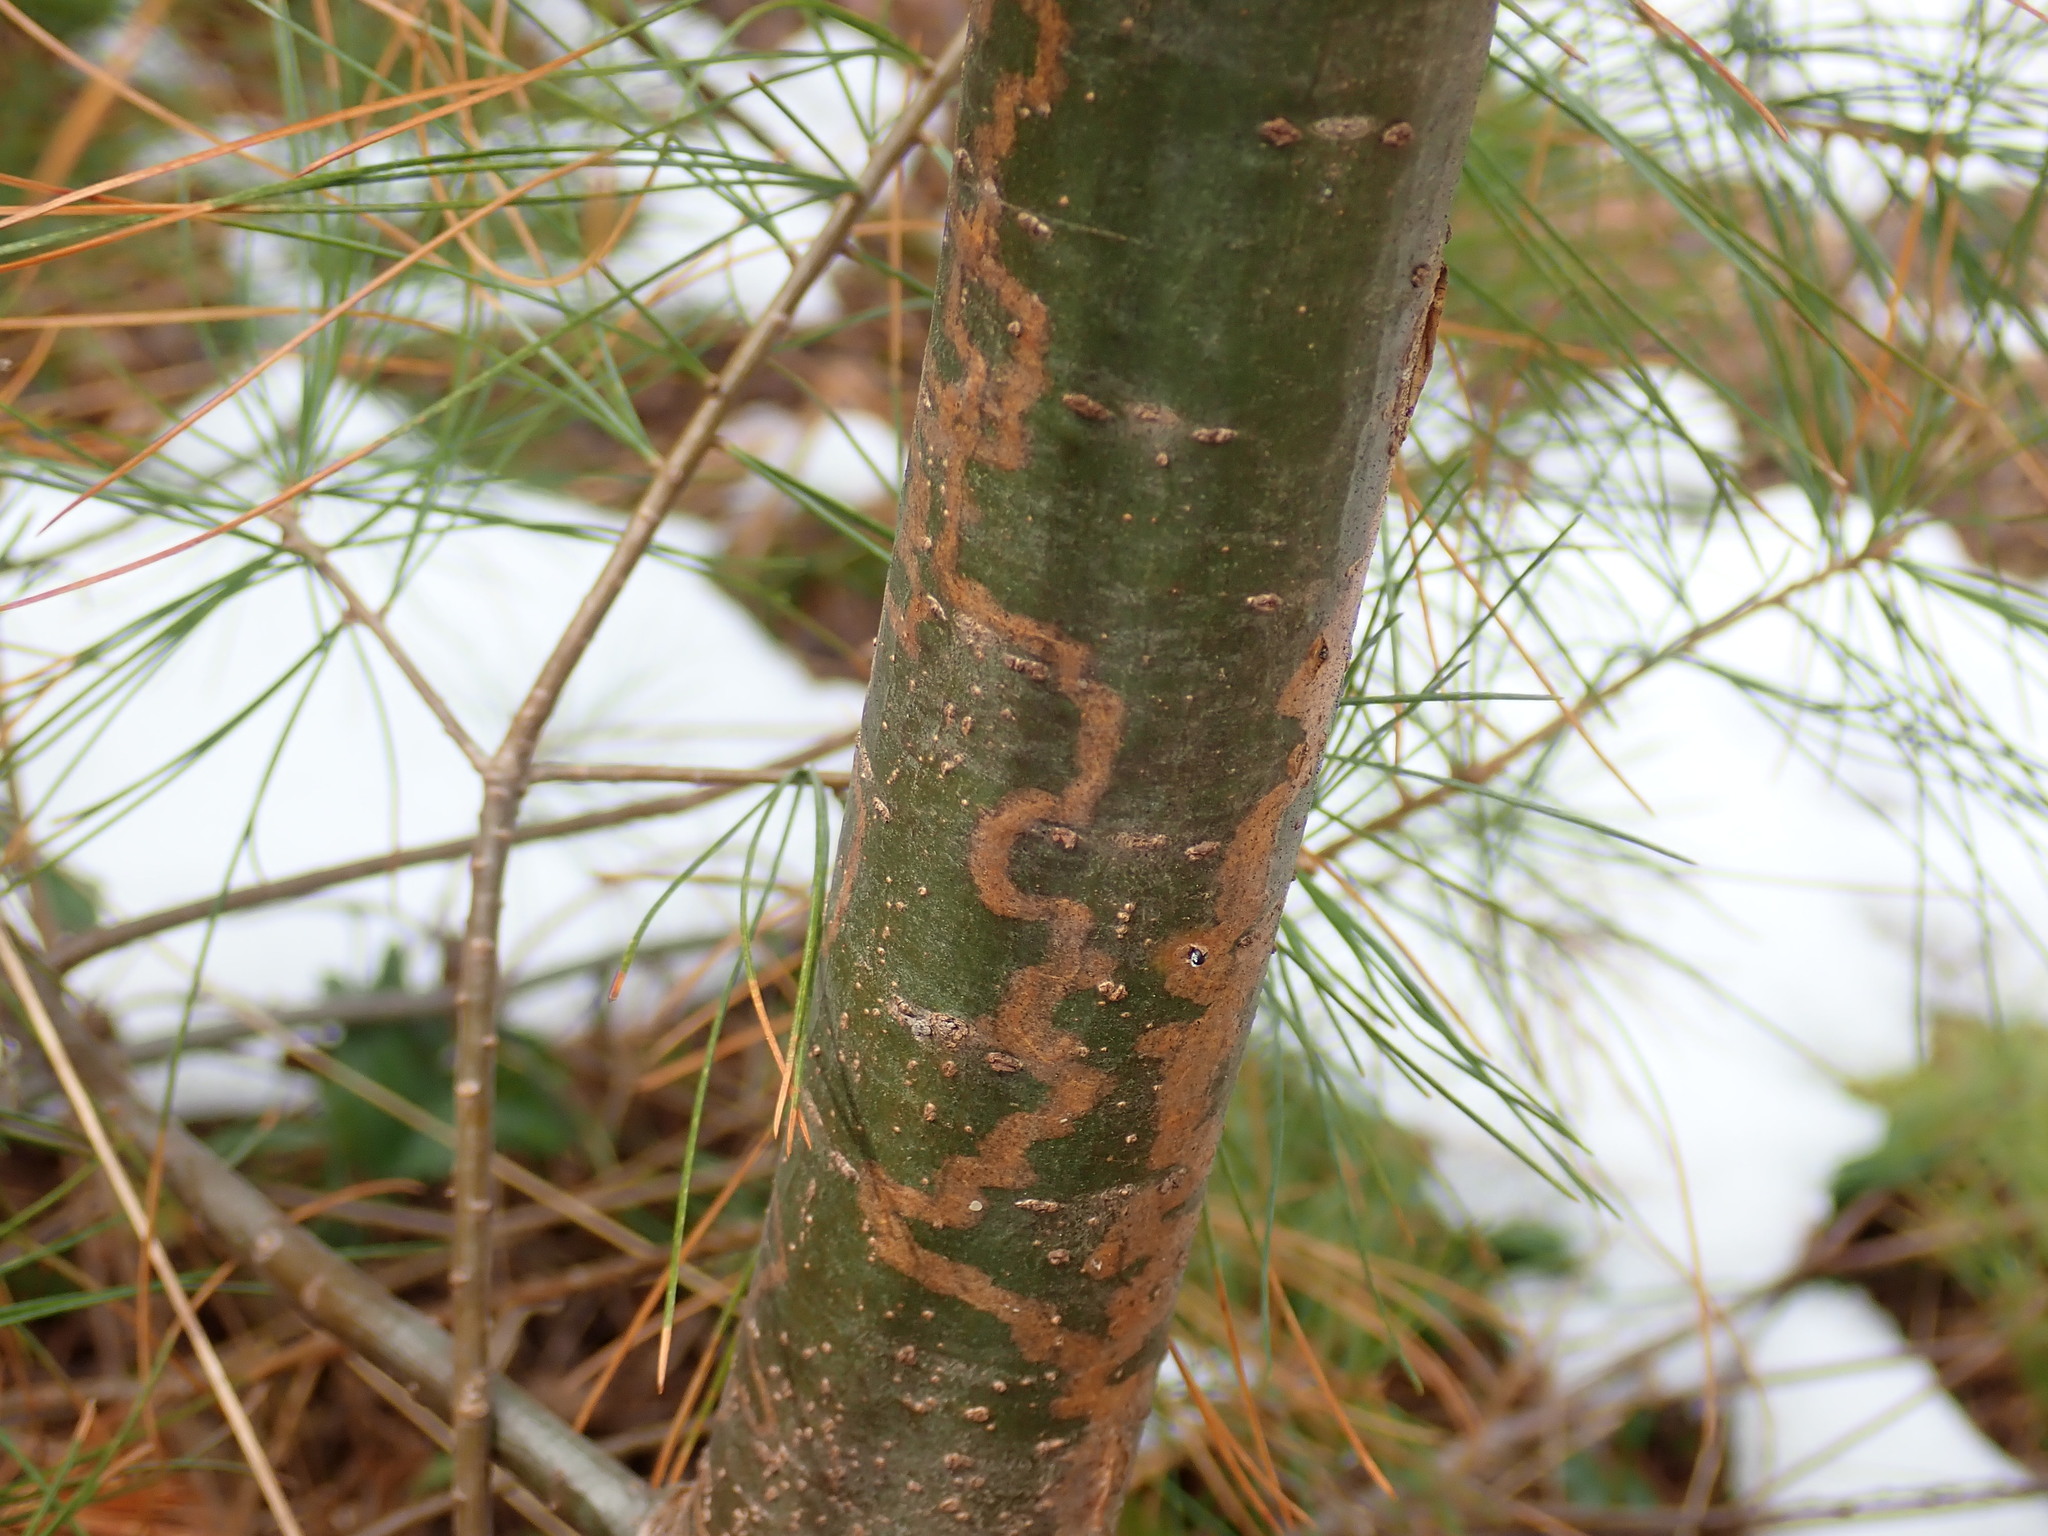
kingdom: Animalia
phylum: Arthropoda
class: Insecta
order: Lepidoptera
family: Gracillariidae
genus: Marmara
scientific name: Marmara fasciella
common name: White pine barkminer moth
